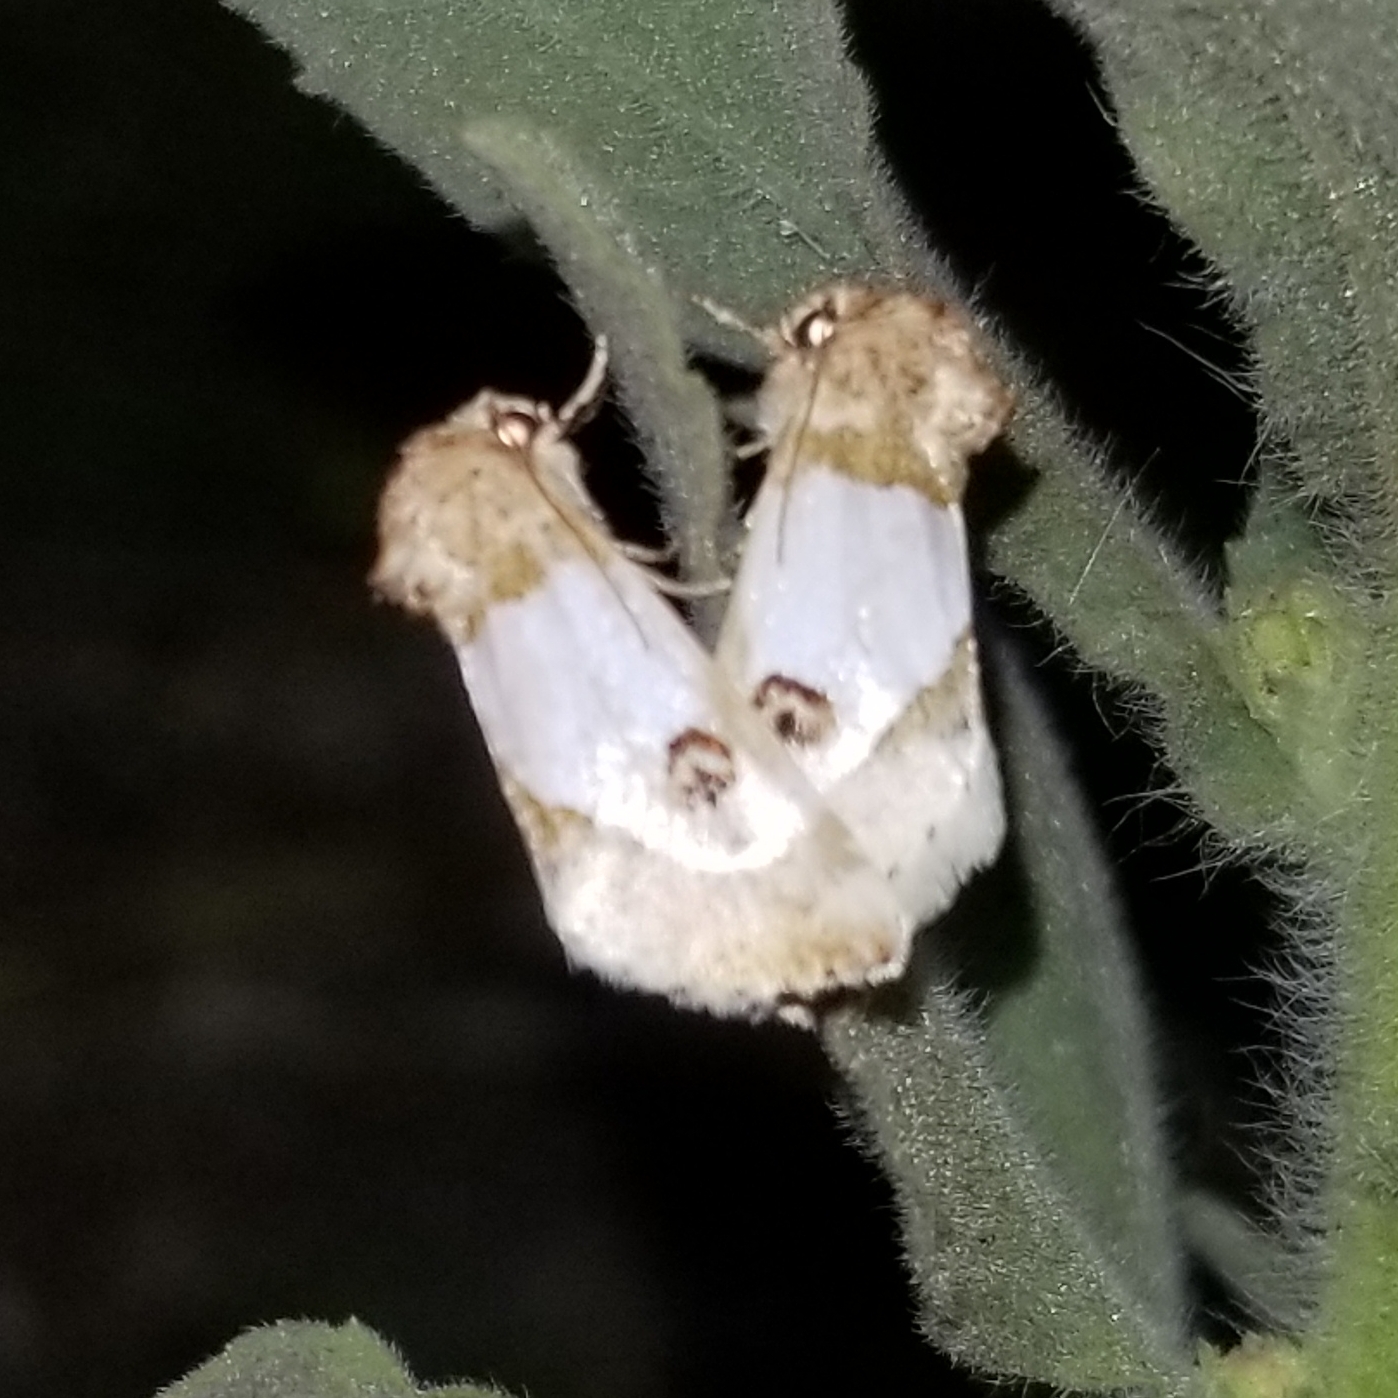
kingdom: Animalia
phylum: Arthropoda
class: Insecta
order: Lepidoptera
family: Noctuidae
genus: Schinia
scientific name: Schinia oculata
